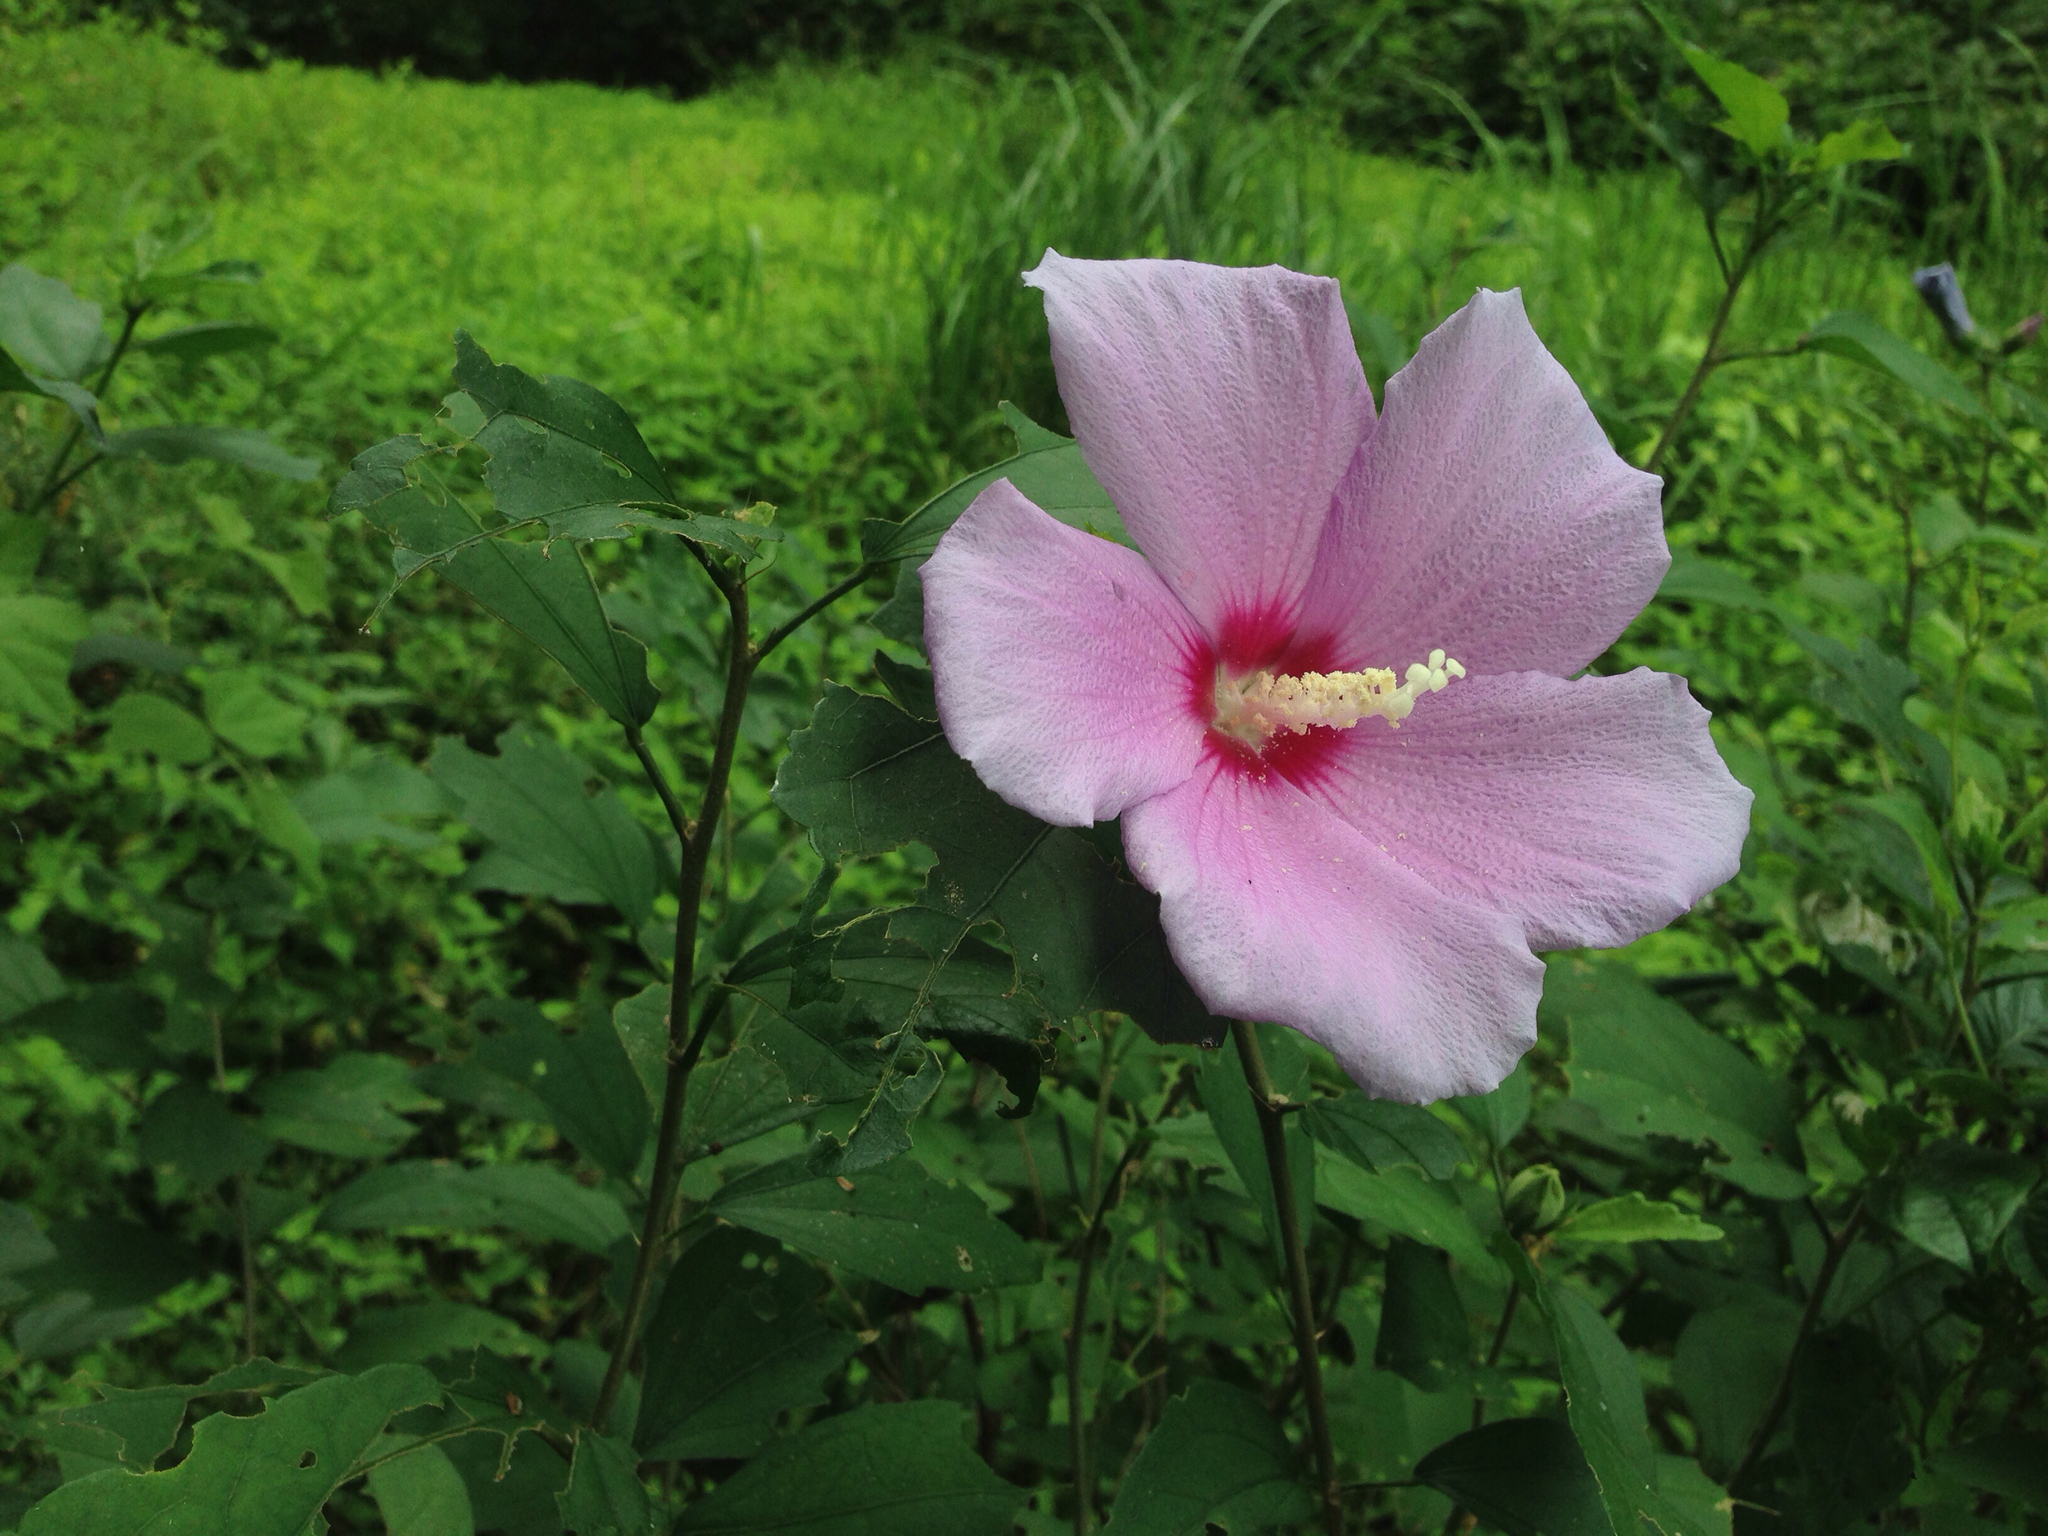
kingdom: Plantae
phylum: Tracheophyta
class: Magnoliopsida
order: Malvales
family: Malvaceae
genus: Hibiscus
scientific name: Hibiscus syriacus
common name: Syrian ketmia
